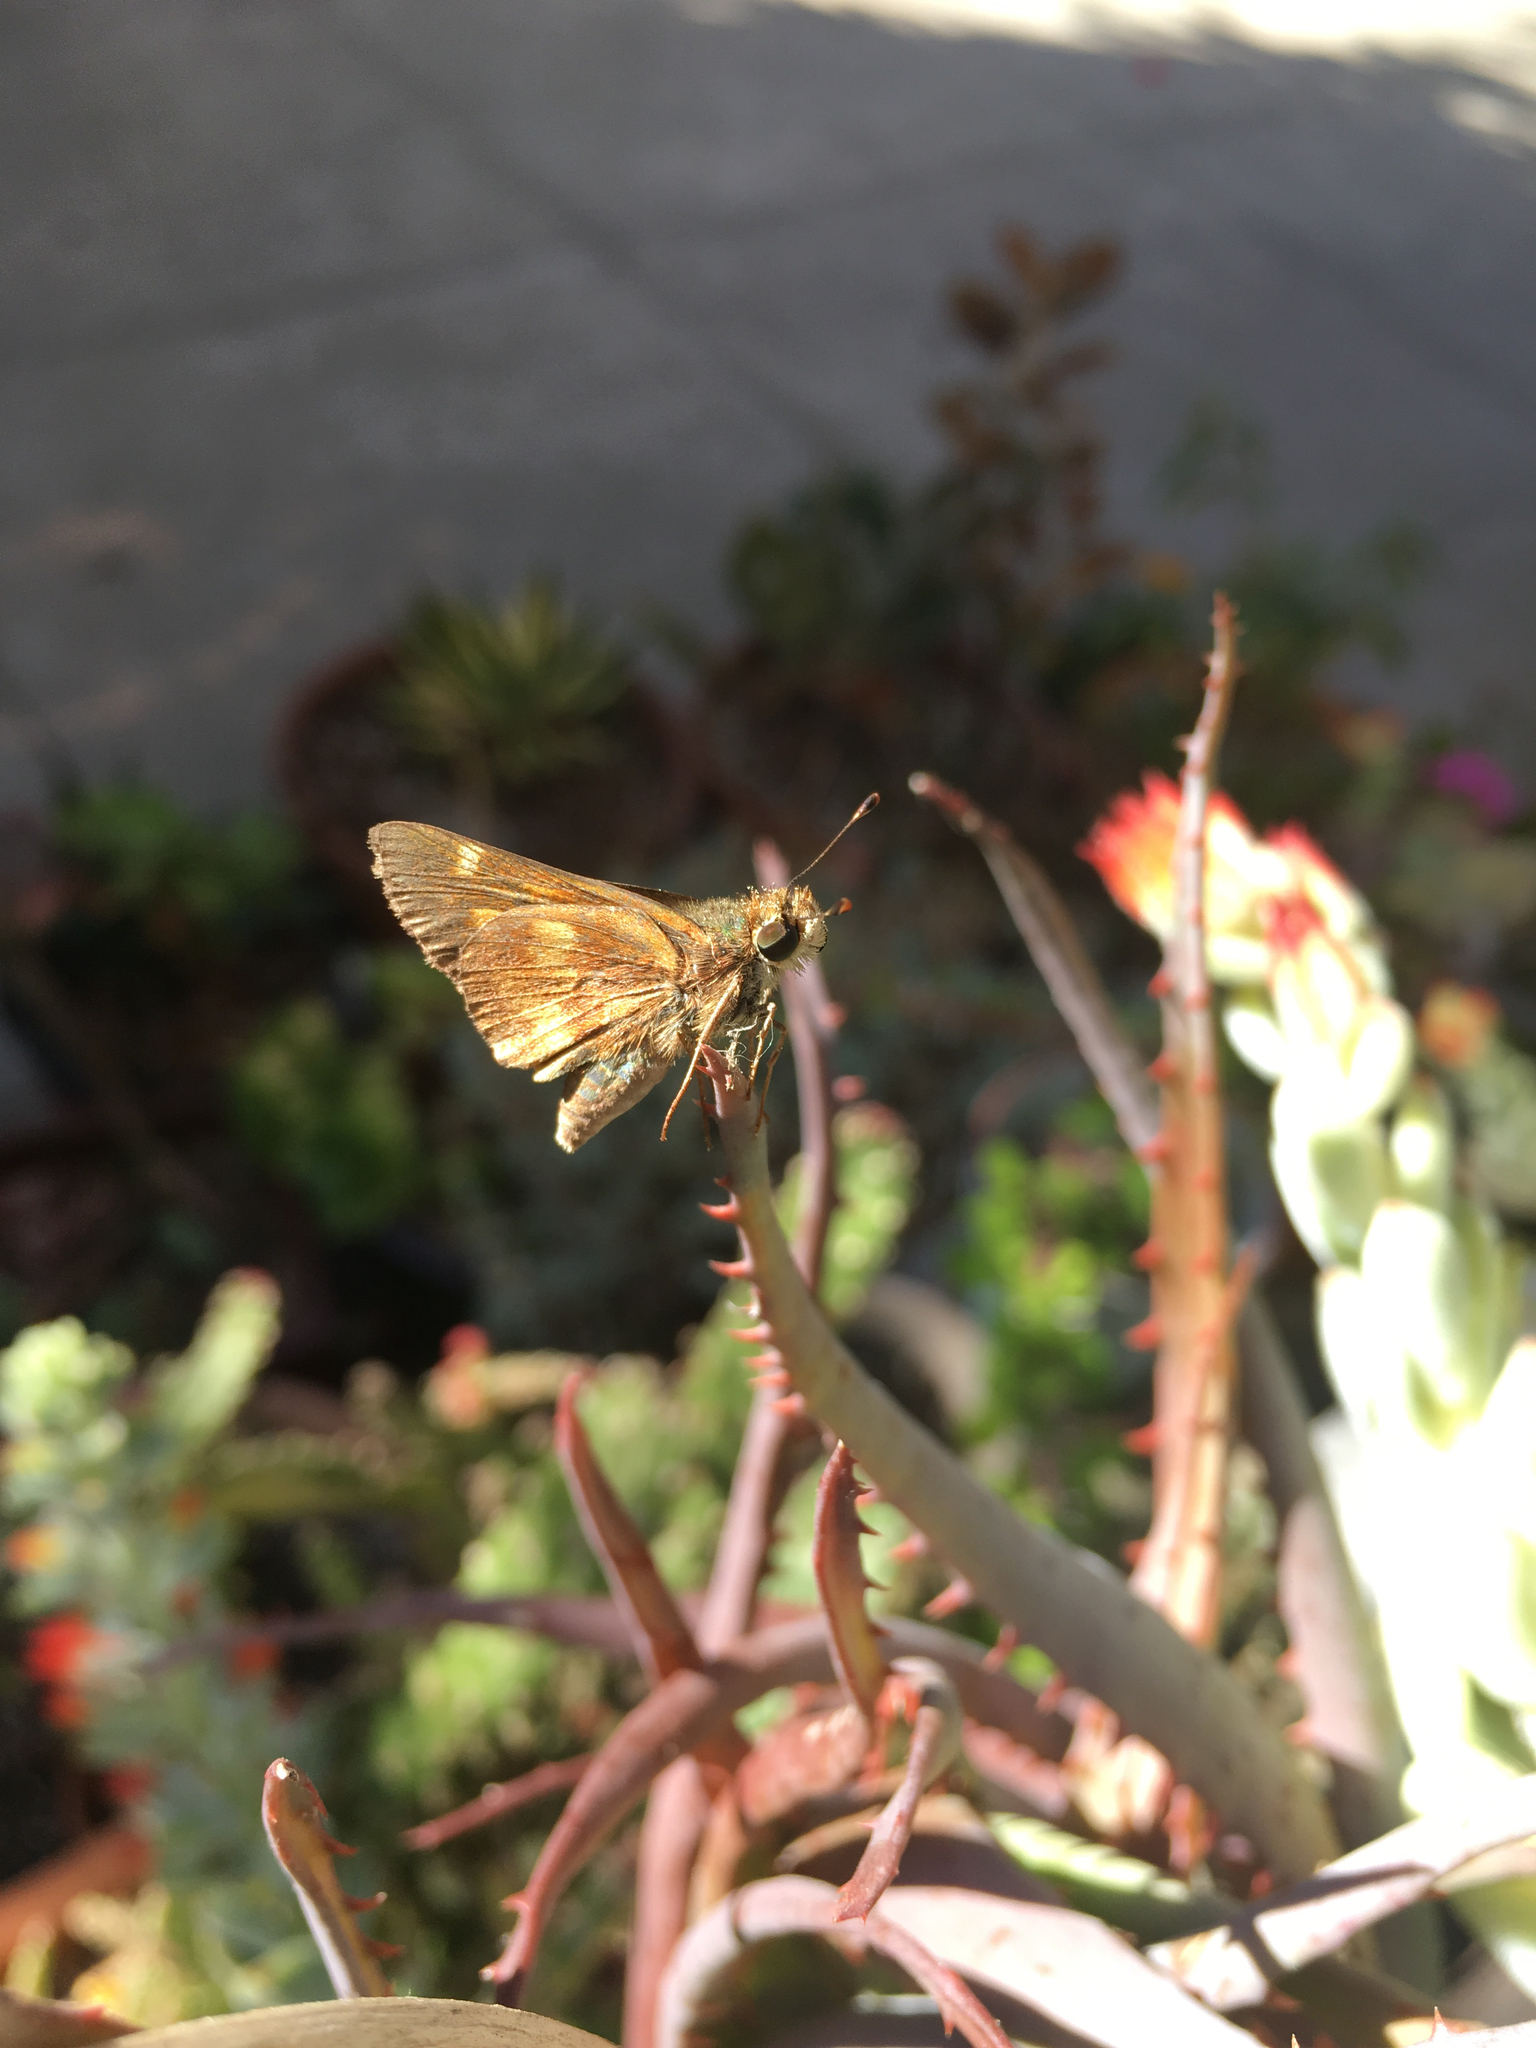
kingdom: Animalia
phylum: Arthropoda
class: Insecta
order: Lepidoptera
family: Hesperiidae
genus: Lon
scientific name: Lon melane
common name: Umber skipper
